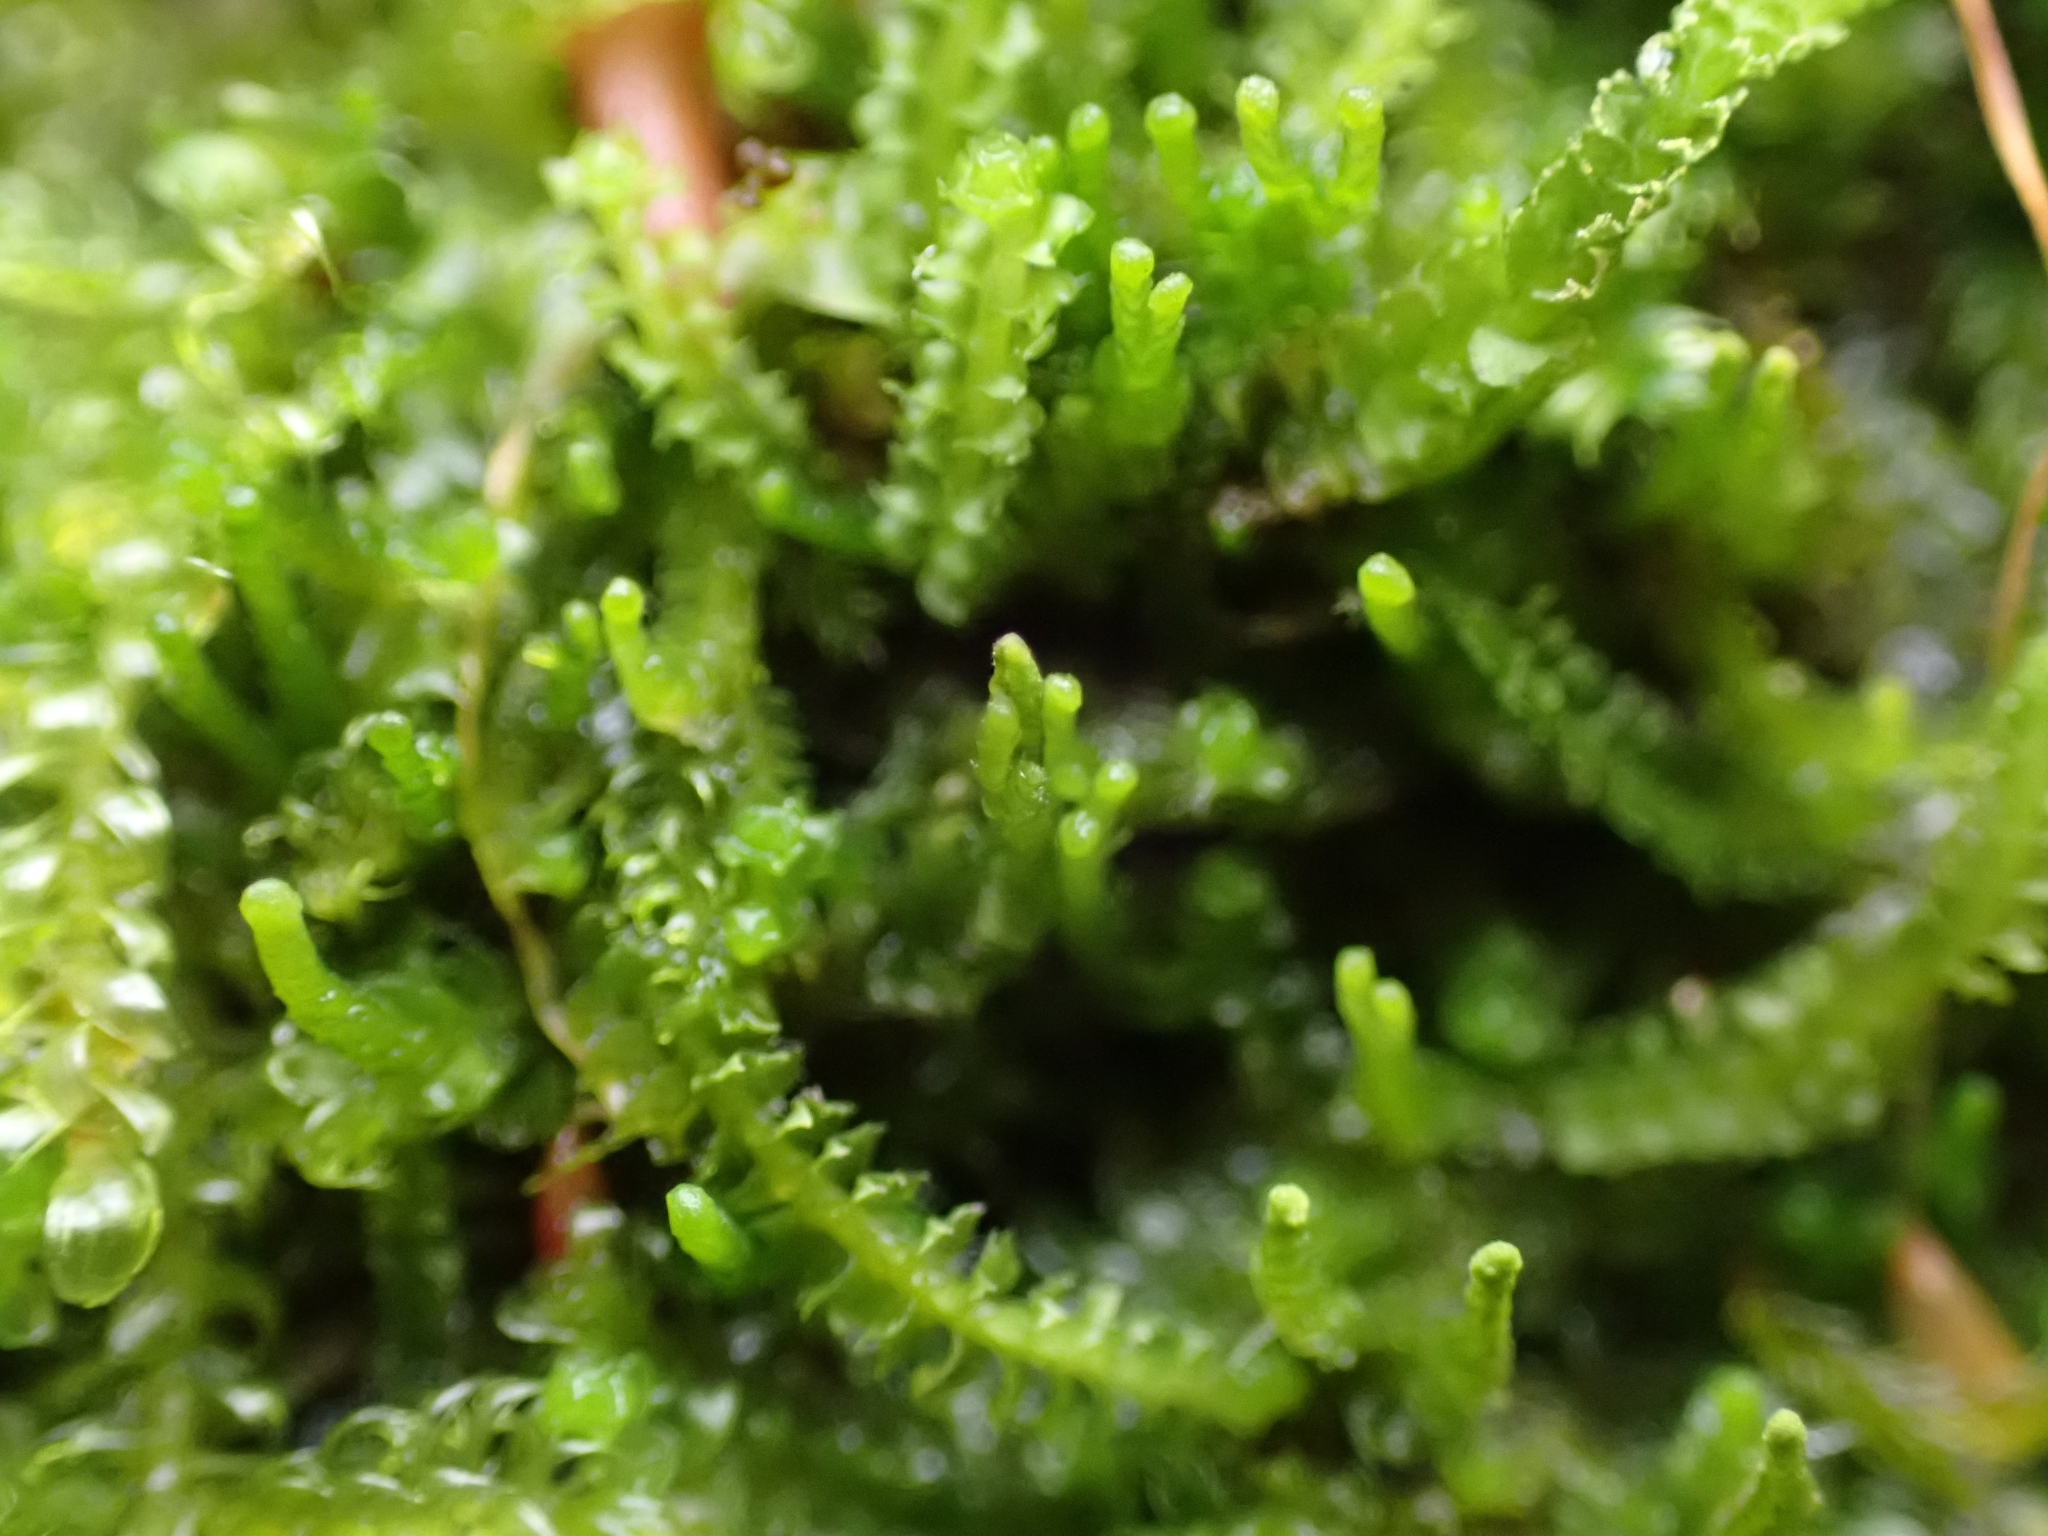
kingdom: Plantae
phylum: Marchantiophyta
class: Jungermanniopsida
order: Jungermanniales
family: Anastrophyllaceae
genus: Neoorthocaulis
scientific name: Neoorthocaulis attenuatus
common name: Trunk pawwort
